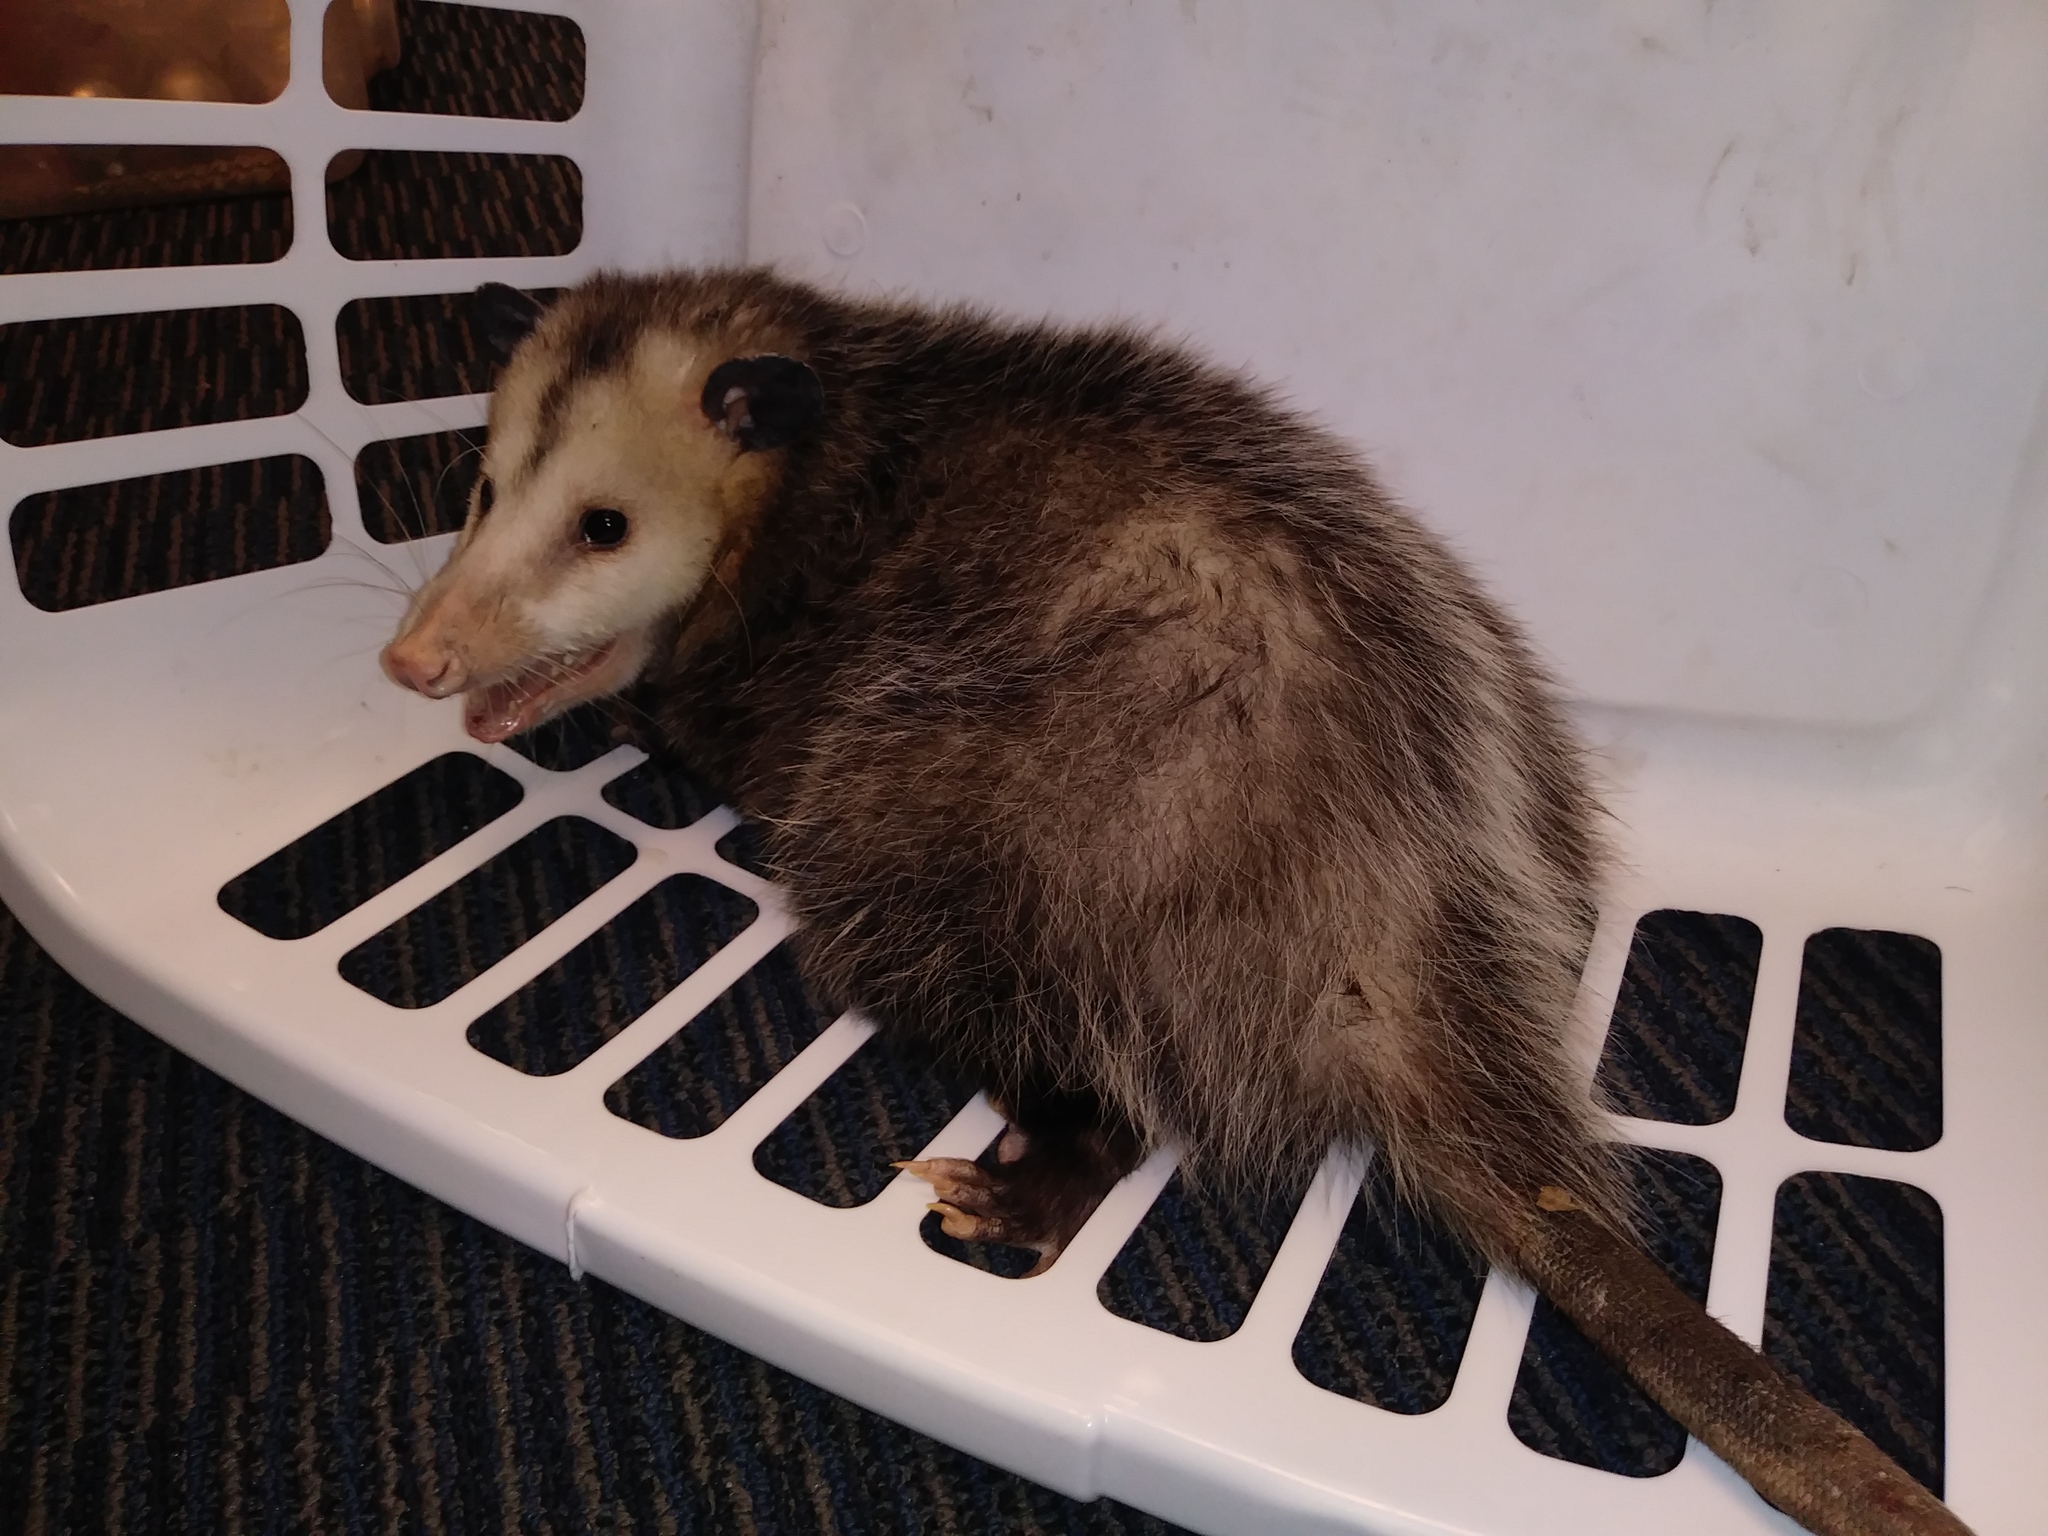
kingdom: Animalia
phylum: Chordata
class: Mammalia
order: Didelphimorphia
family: Didelphidae
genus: Didelphis
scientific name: Didelphis virginiana
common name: Virginia opossum
